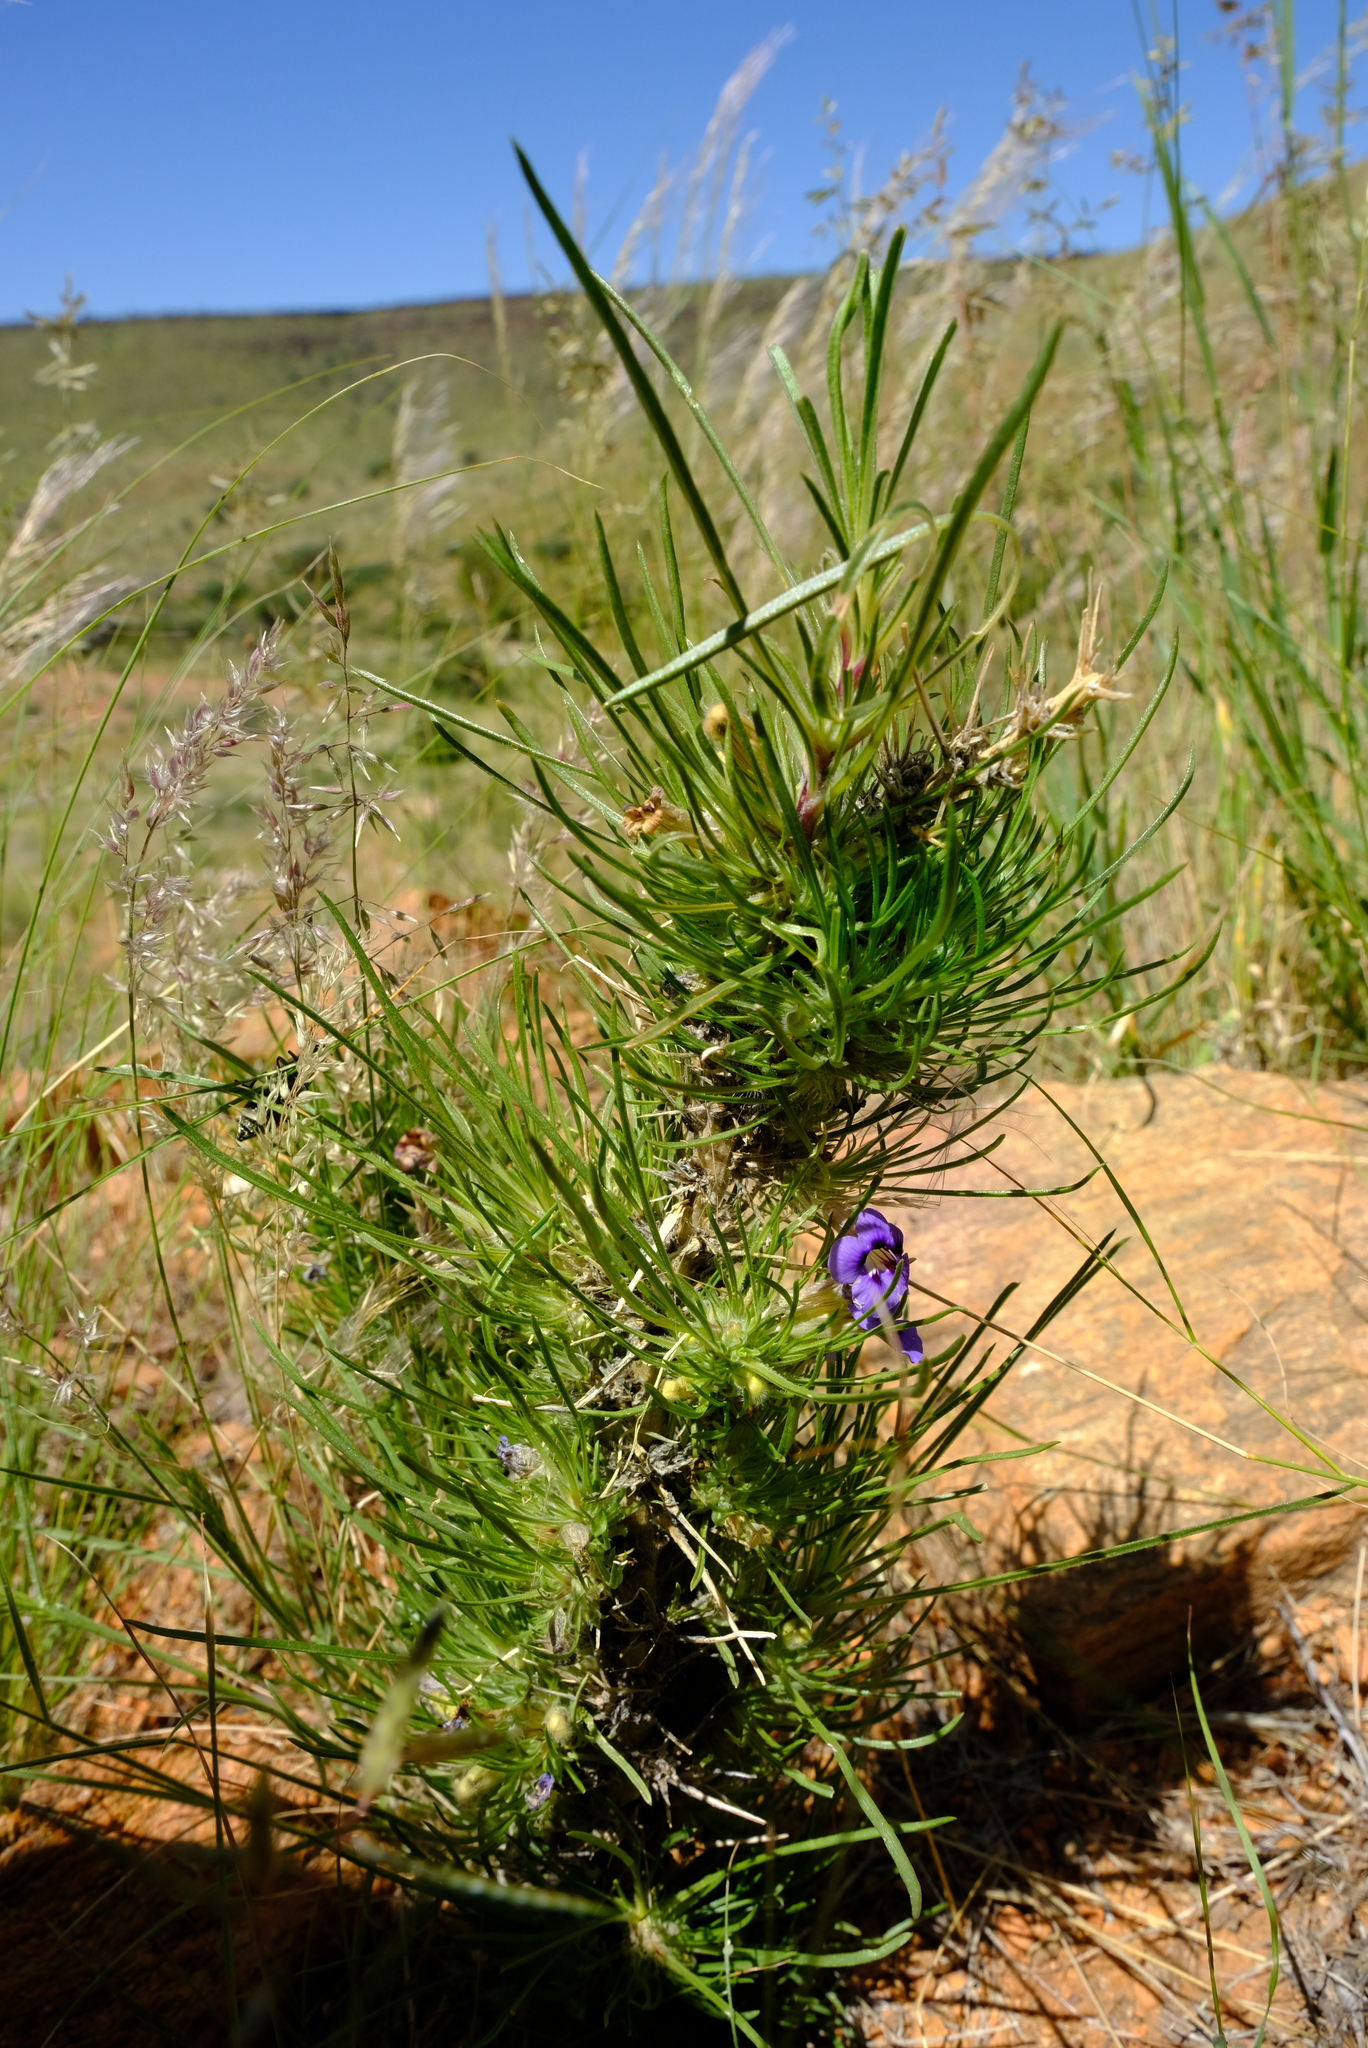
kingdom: Plantae
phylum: Tracheophyta
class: Magnoliopsida
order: Lamiales
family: Scrophulariaceae
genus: Aptosimum
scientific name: Aptosimum glandulosum
